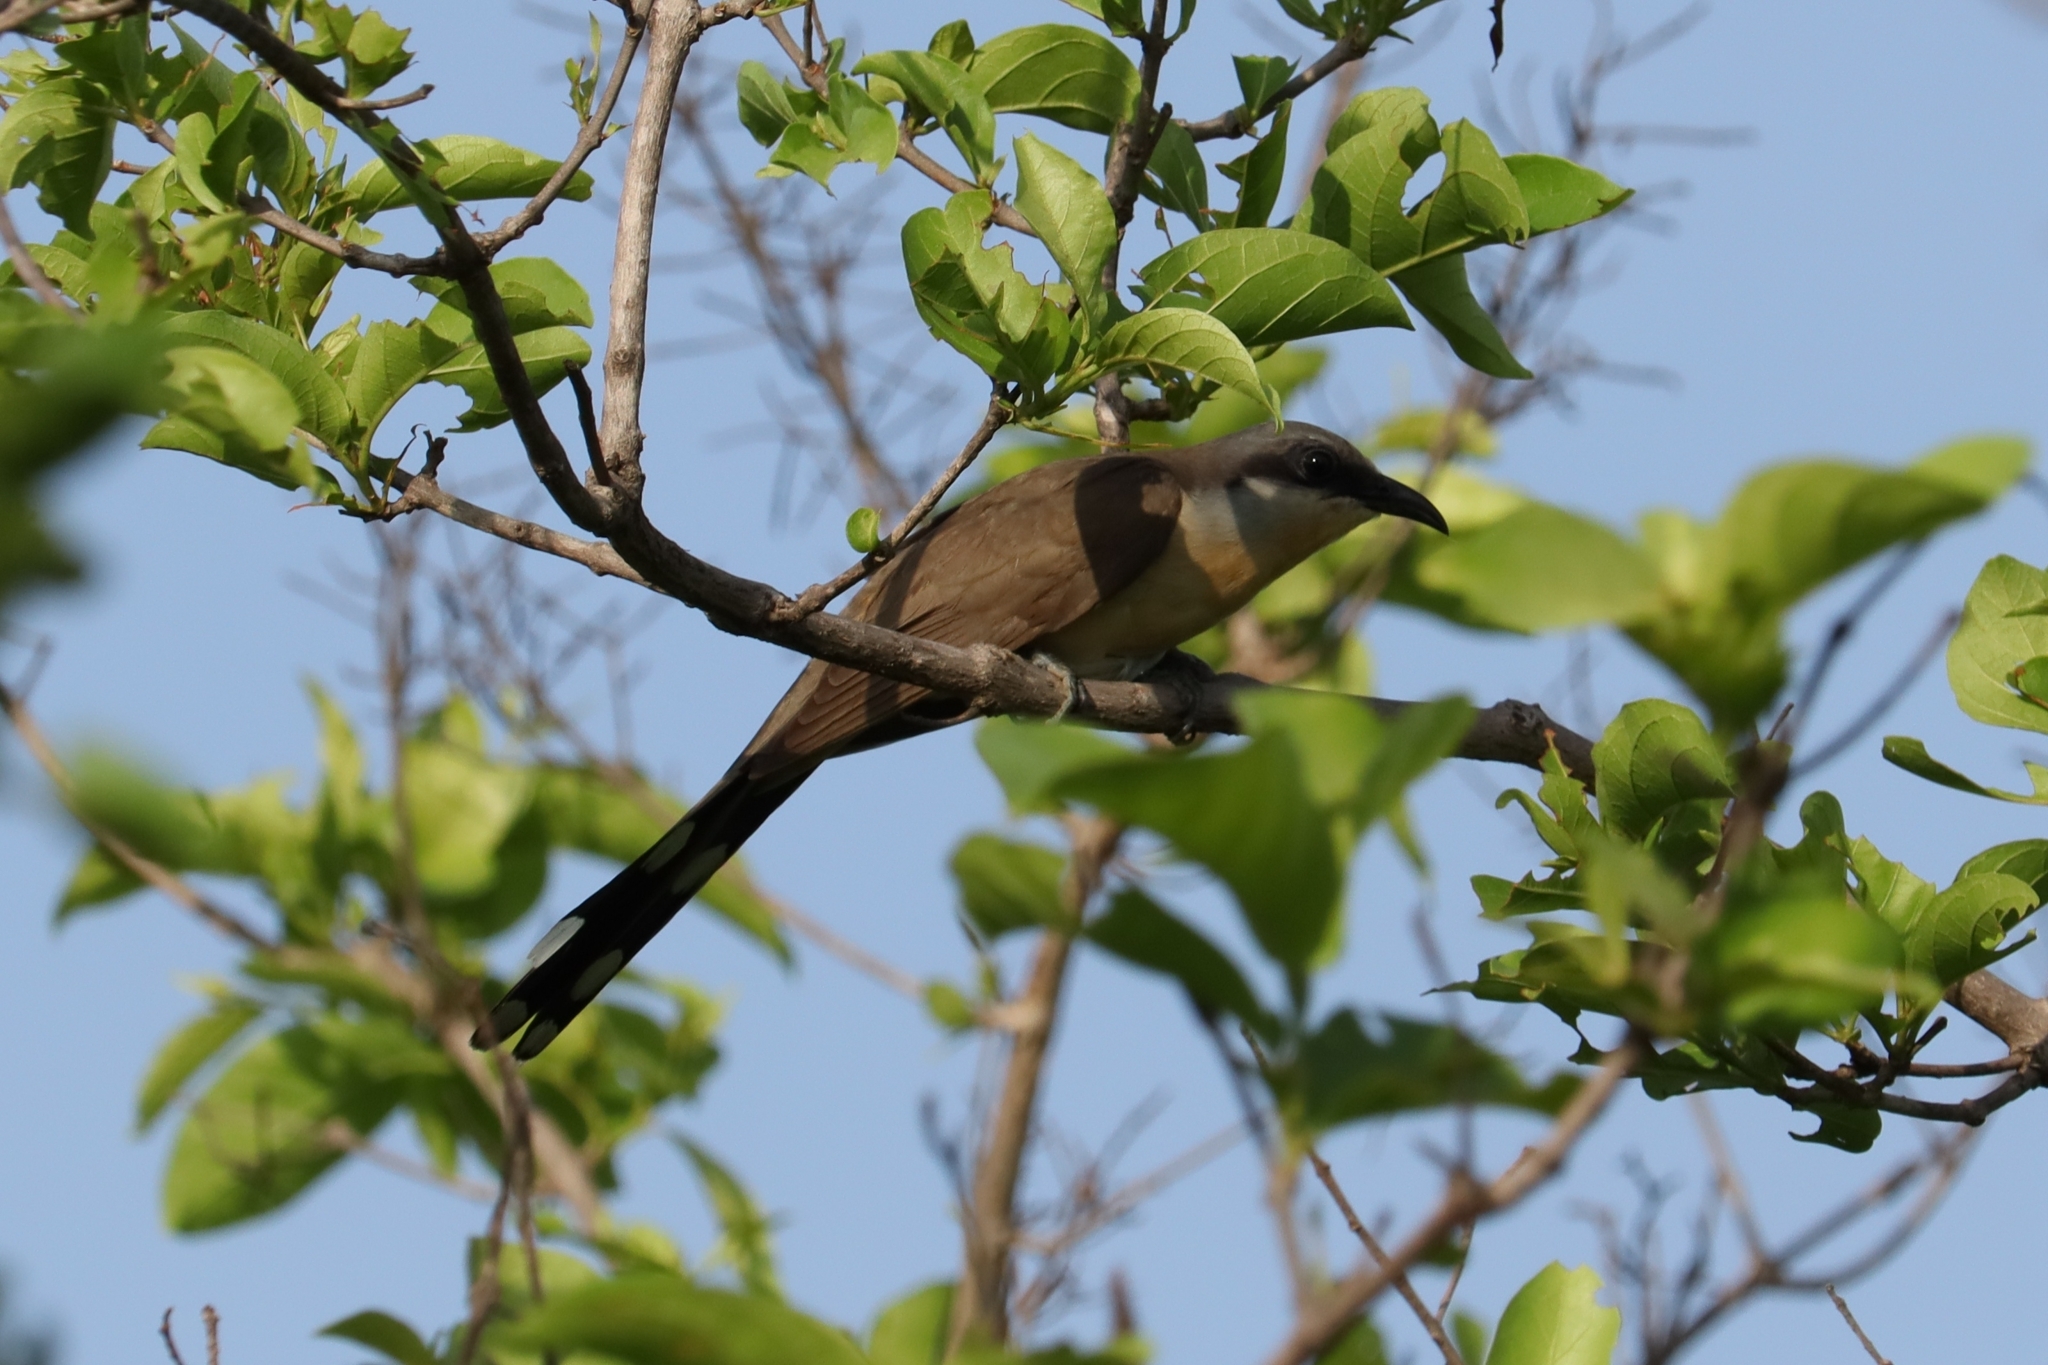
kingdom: Animalia
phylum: Chordata
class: Aves
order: Cuculiformes
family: Cuculidae
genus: Coccyzus
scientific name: Coccyzus melacoryphus
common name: Dark-billed cuckoo
